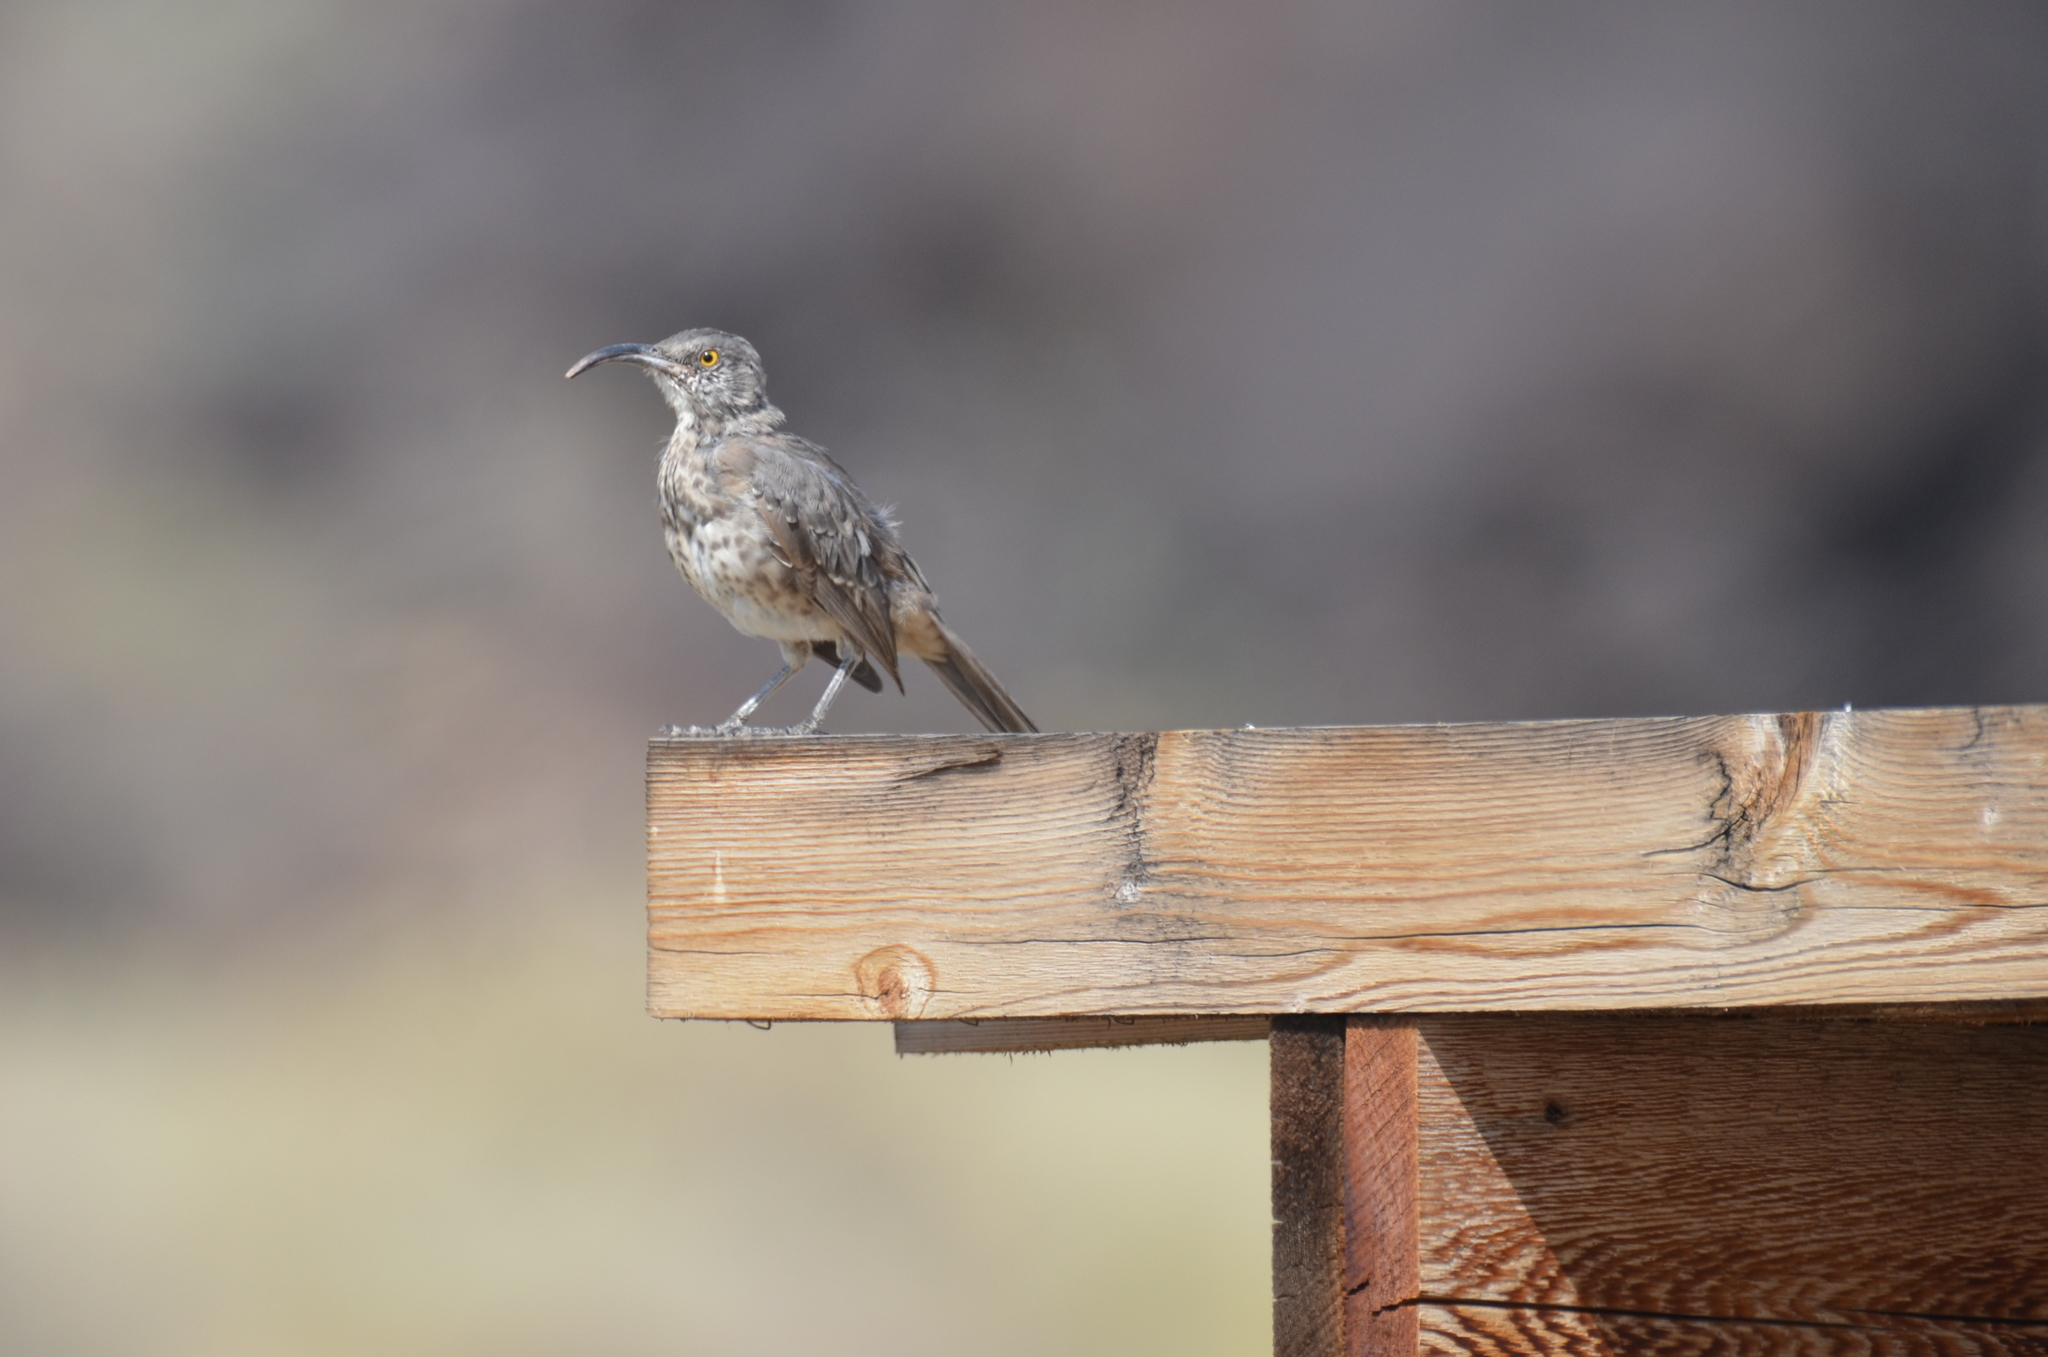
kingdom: Animalia
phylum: Chordata
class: Aves
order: Passeriformes
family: Mimidae
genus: Toxostoma
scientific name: Toxostoma curvirostre
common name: Curve-billed thrasher
